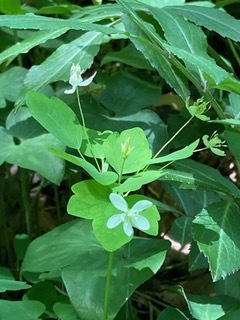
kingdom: Plantae
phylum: Tracheophyta
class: Magnoliopsida
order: Ranunculales
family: Ranunculaceae
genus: Thalictrum
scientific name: Thalictrum thalictroides
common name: Rue-anemone
